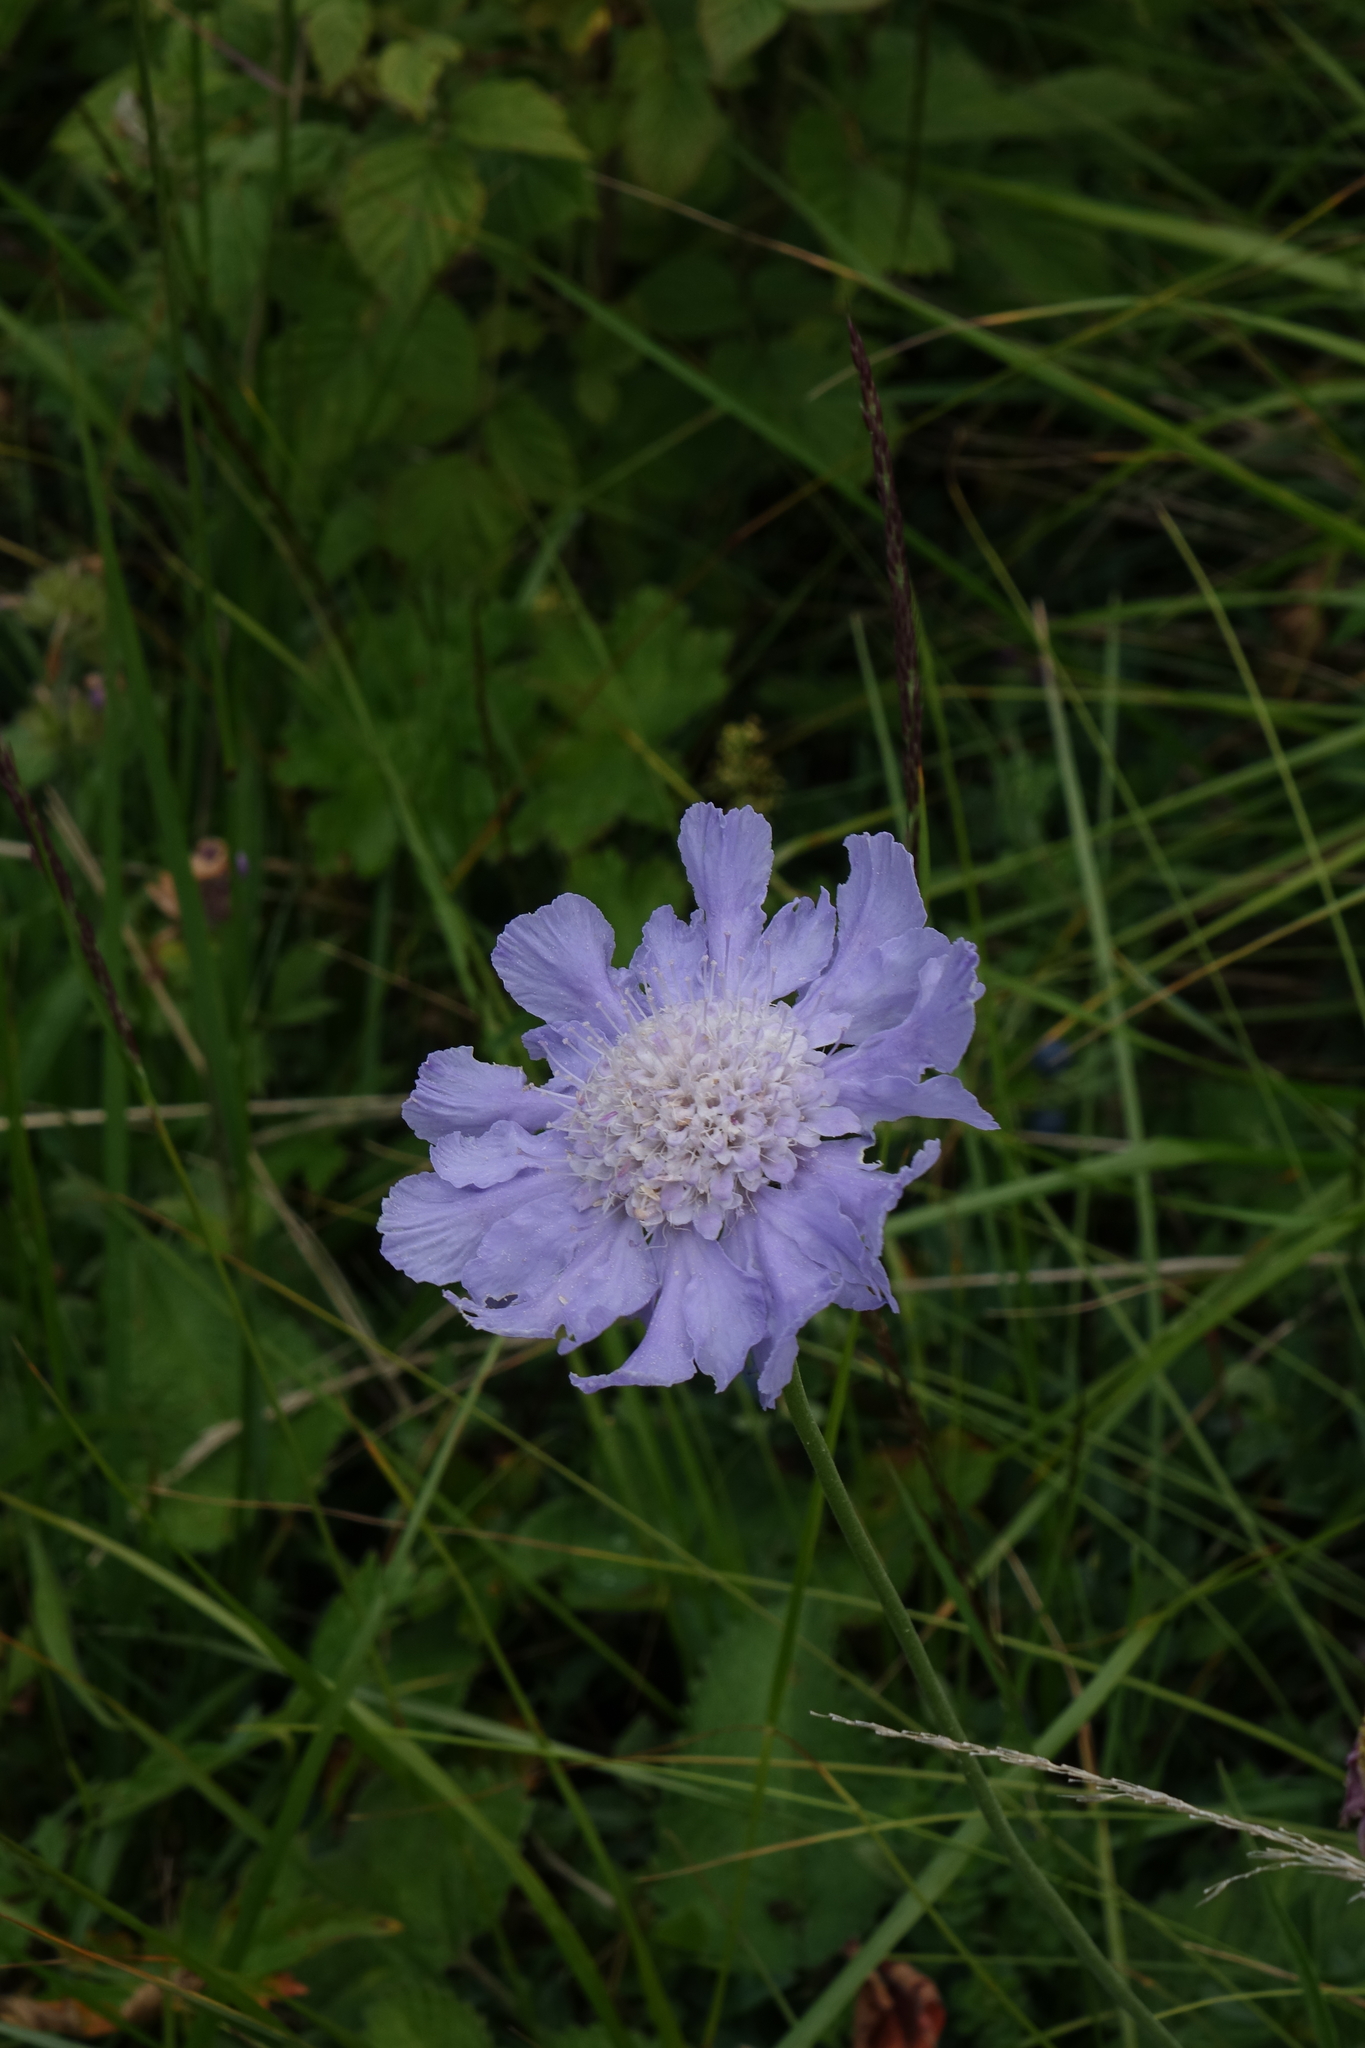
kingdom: Plantae
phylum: Tracheophyta
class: Magnoliopsida
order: Dipsacales
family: Caprifoliaceae
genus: Lomelosia
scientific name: Lomelosia caucasica
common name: Pincushion-flower
